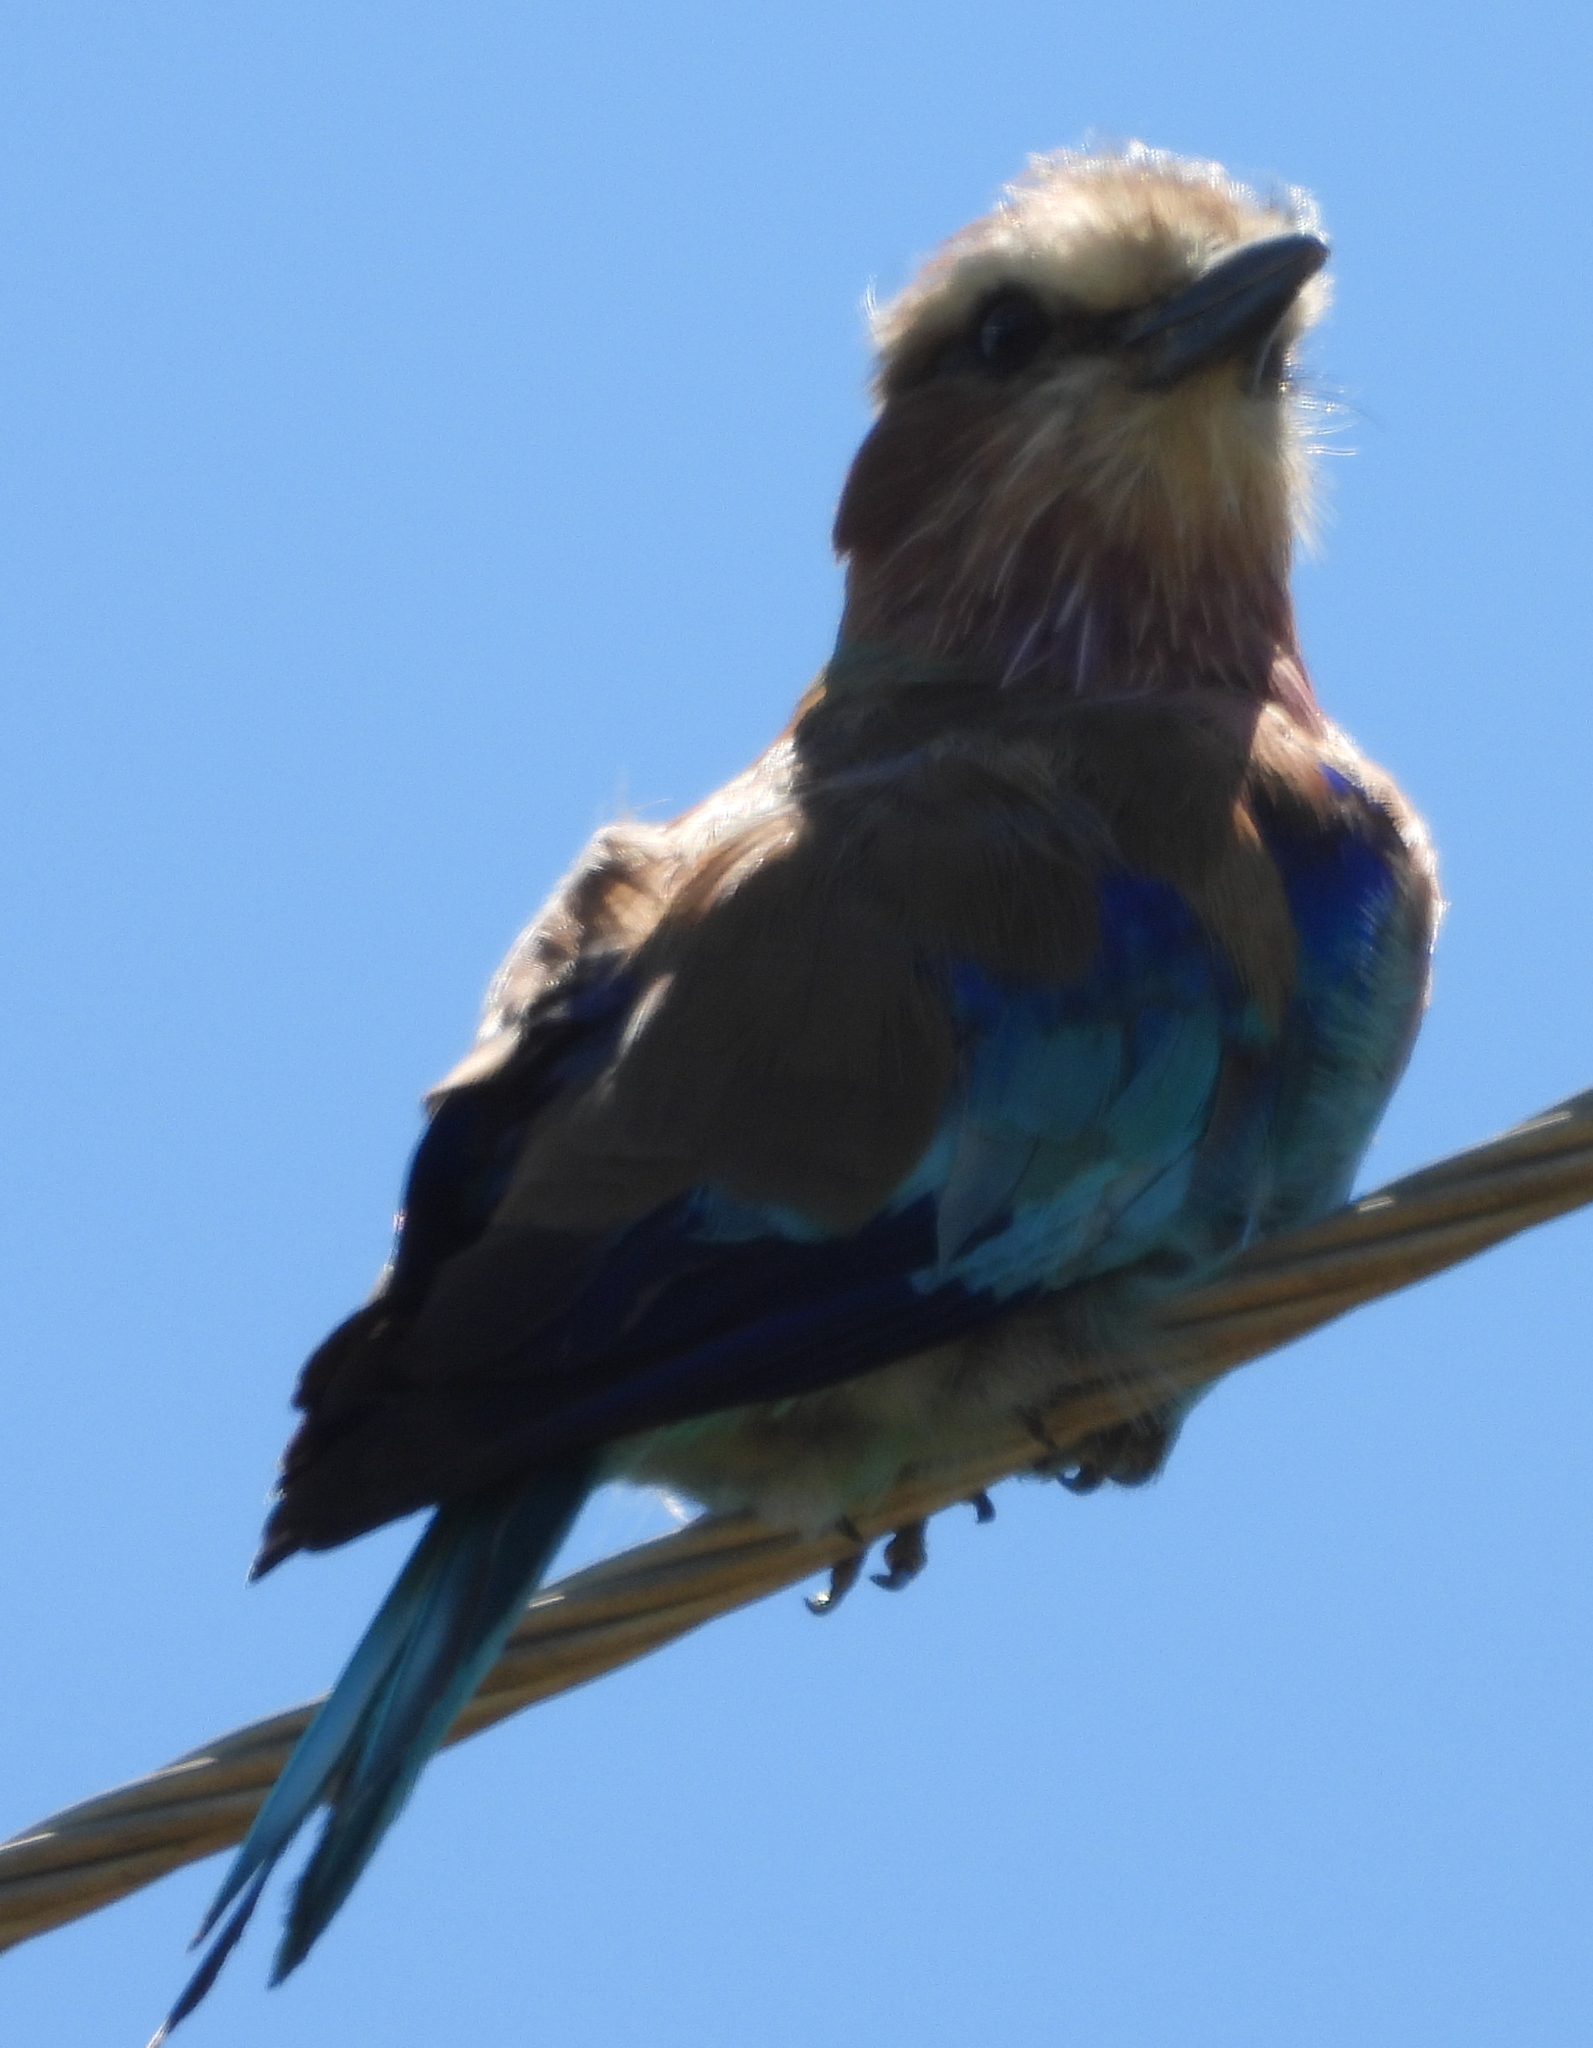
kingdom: Animalia
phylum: Chordata
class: Aves
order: Coraciiformes
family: Coraciidae
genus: Coracias
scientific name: Coracias caudatus
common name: Lilac-breasted roller
